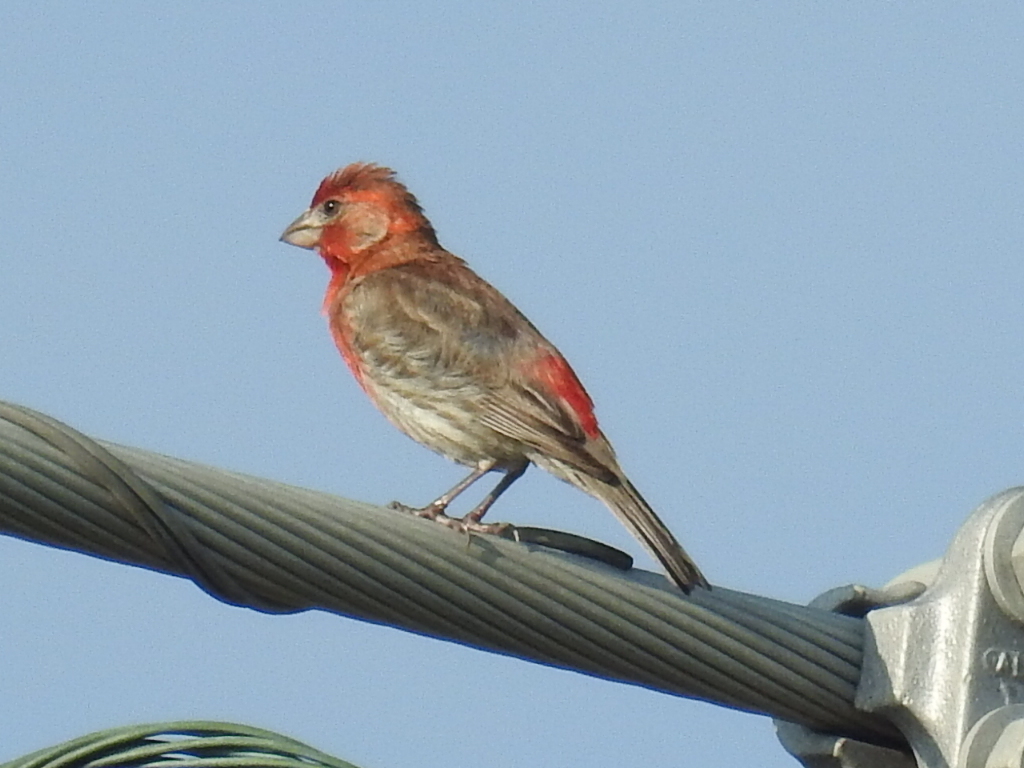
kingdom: Animalia
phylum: Chordata
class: Aves
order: Passeriformes
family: Fringillidae
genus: Haemorhous
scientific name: Haemorhous mexicanus
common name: House finch
